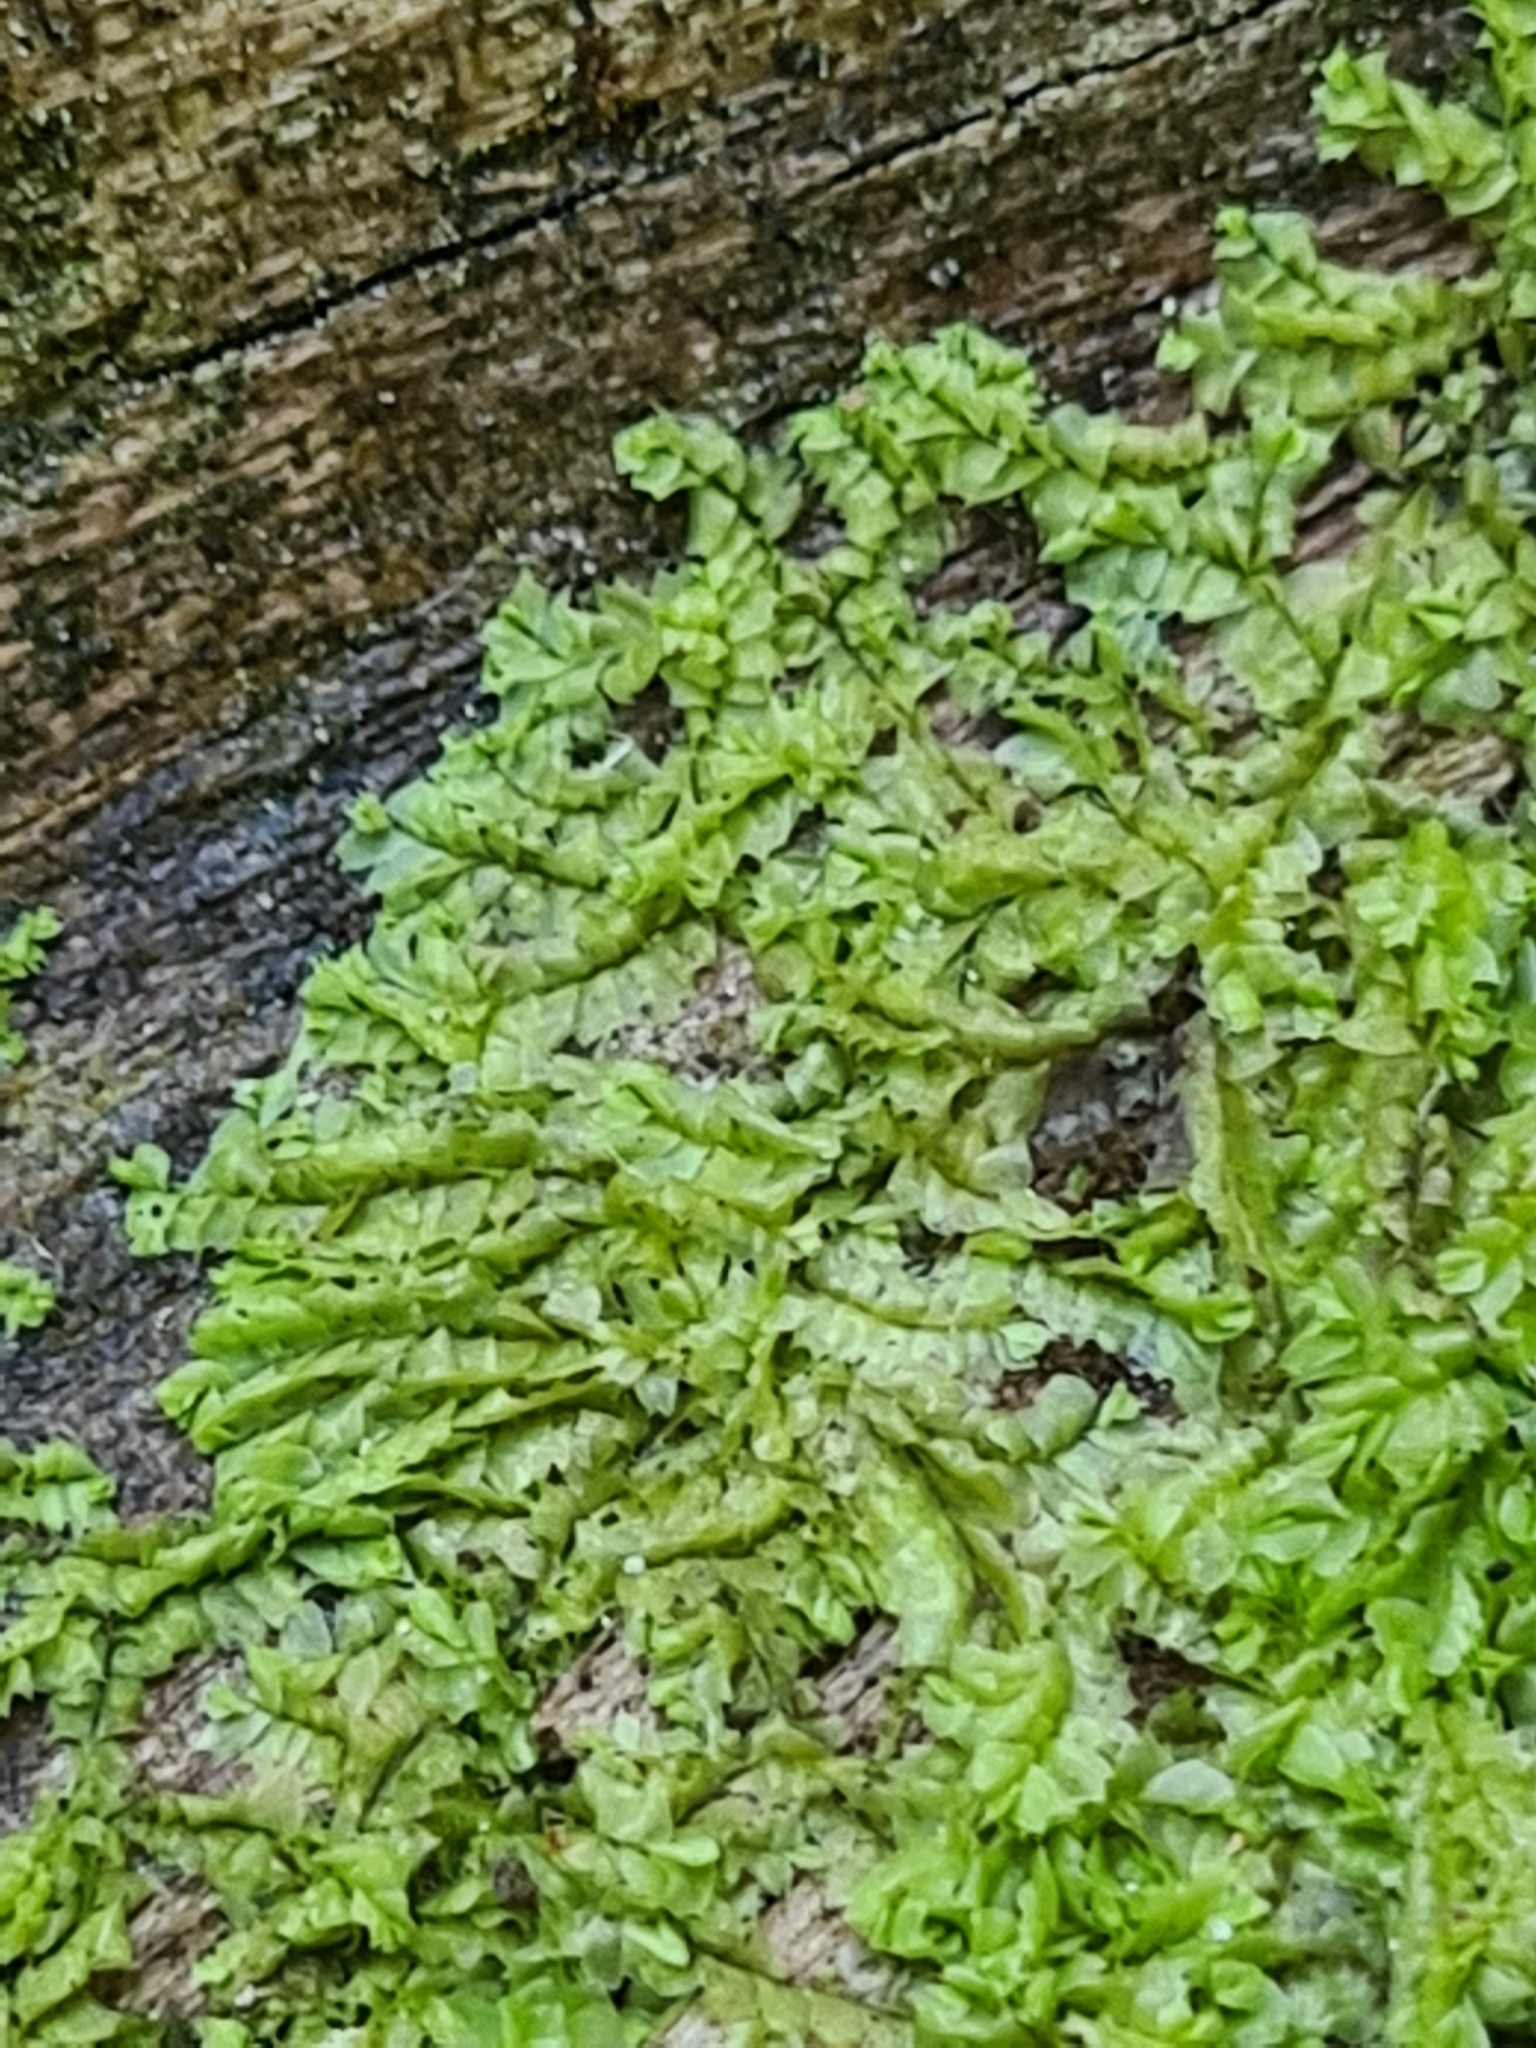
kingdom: Plantae
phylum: Marchantiophyta
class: Jungermanniopsida
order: Jungermanniales
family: Lophocoleaceae
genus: Lophocolea
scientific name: Lophocolea heterophylla
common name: Variable-leaved crestwort
